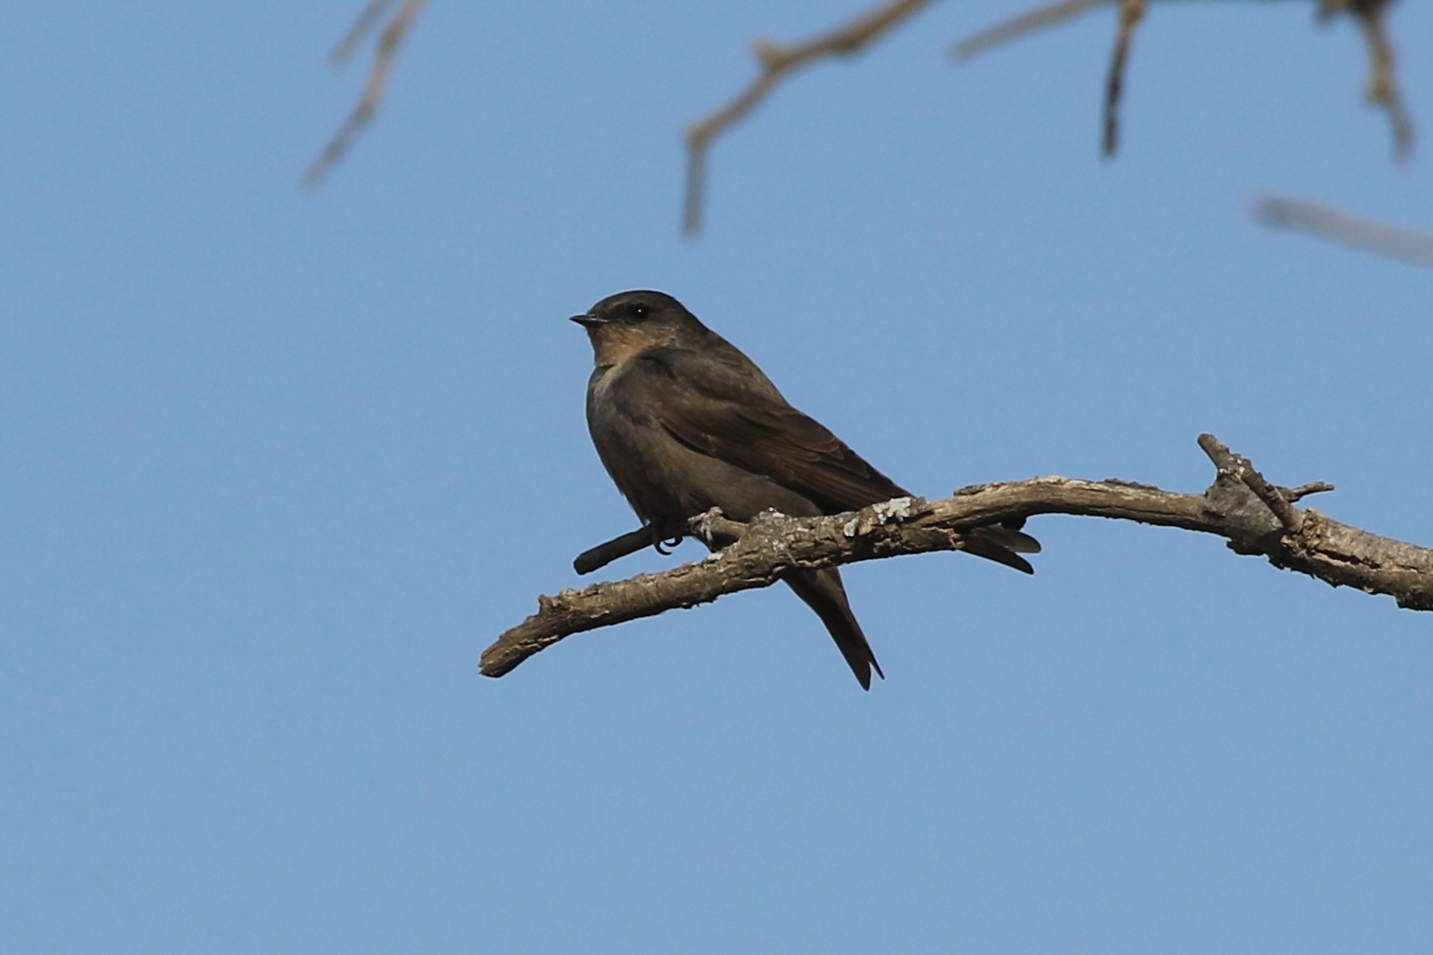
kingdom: Animalia
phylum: Chordata
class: Aves
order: Passeriformes
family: Hirundinidae
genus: Ptyonoprogne
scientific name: Ptyonoprogne fuligula
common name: Rock martin
